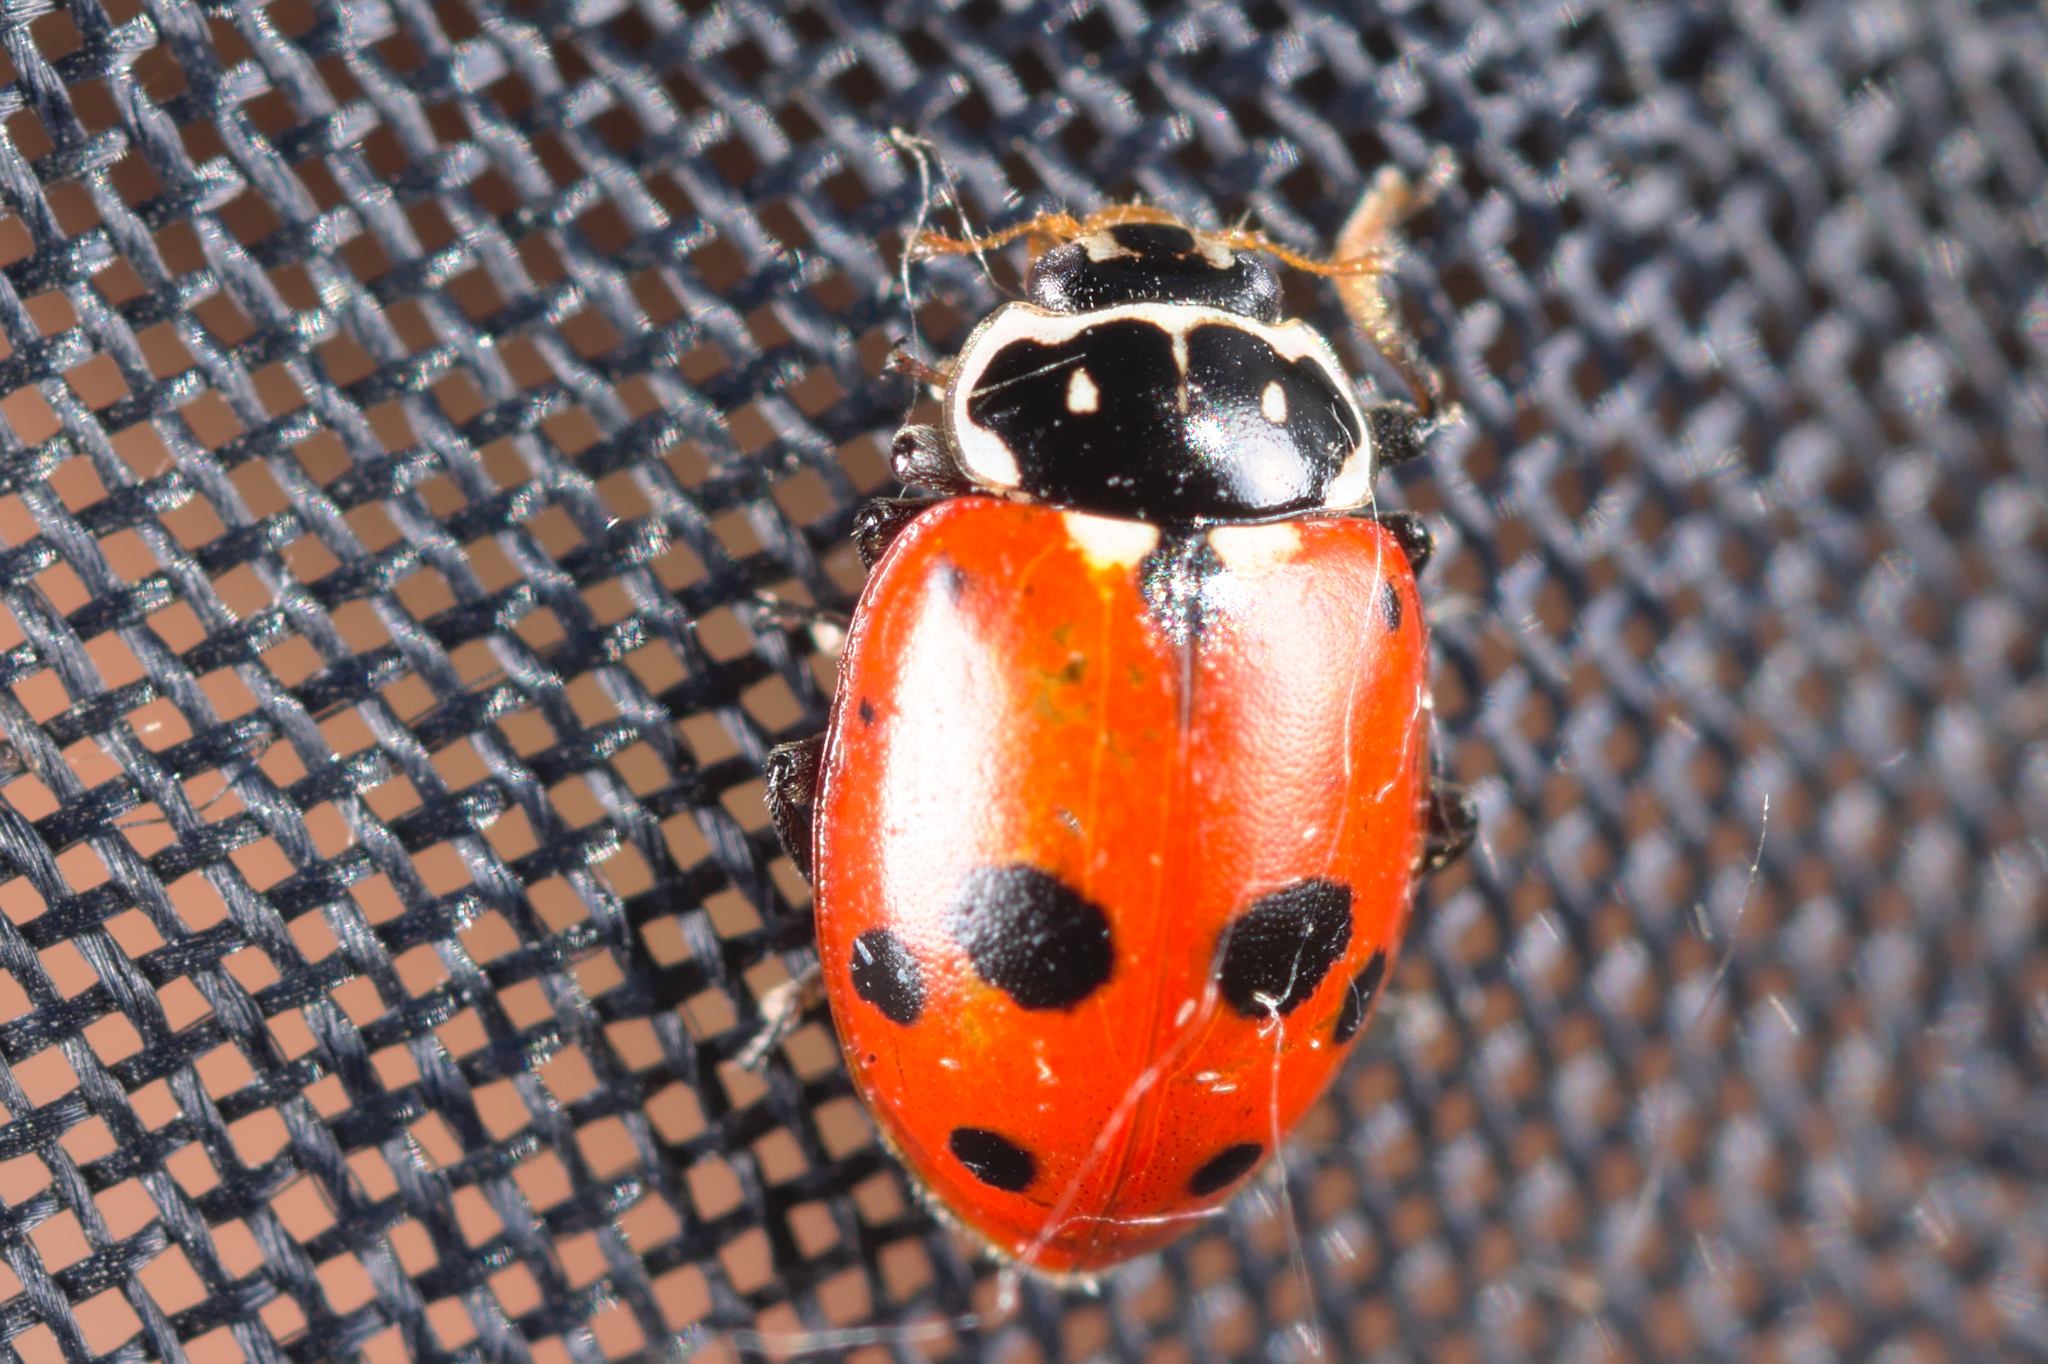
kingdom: Animalia
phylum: Arthropoda
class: Insecta
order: Coleoptera
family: Coccinellidae
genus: Hippodamia
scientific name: Hippodamia variegata
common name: Ladybird beetle
